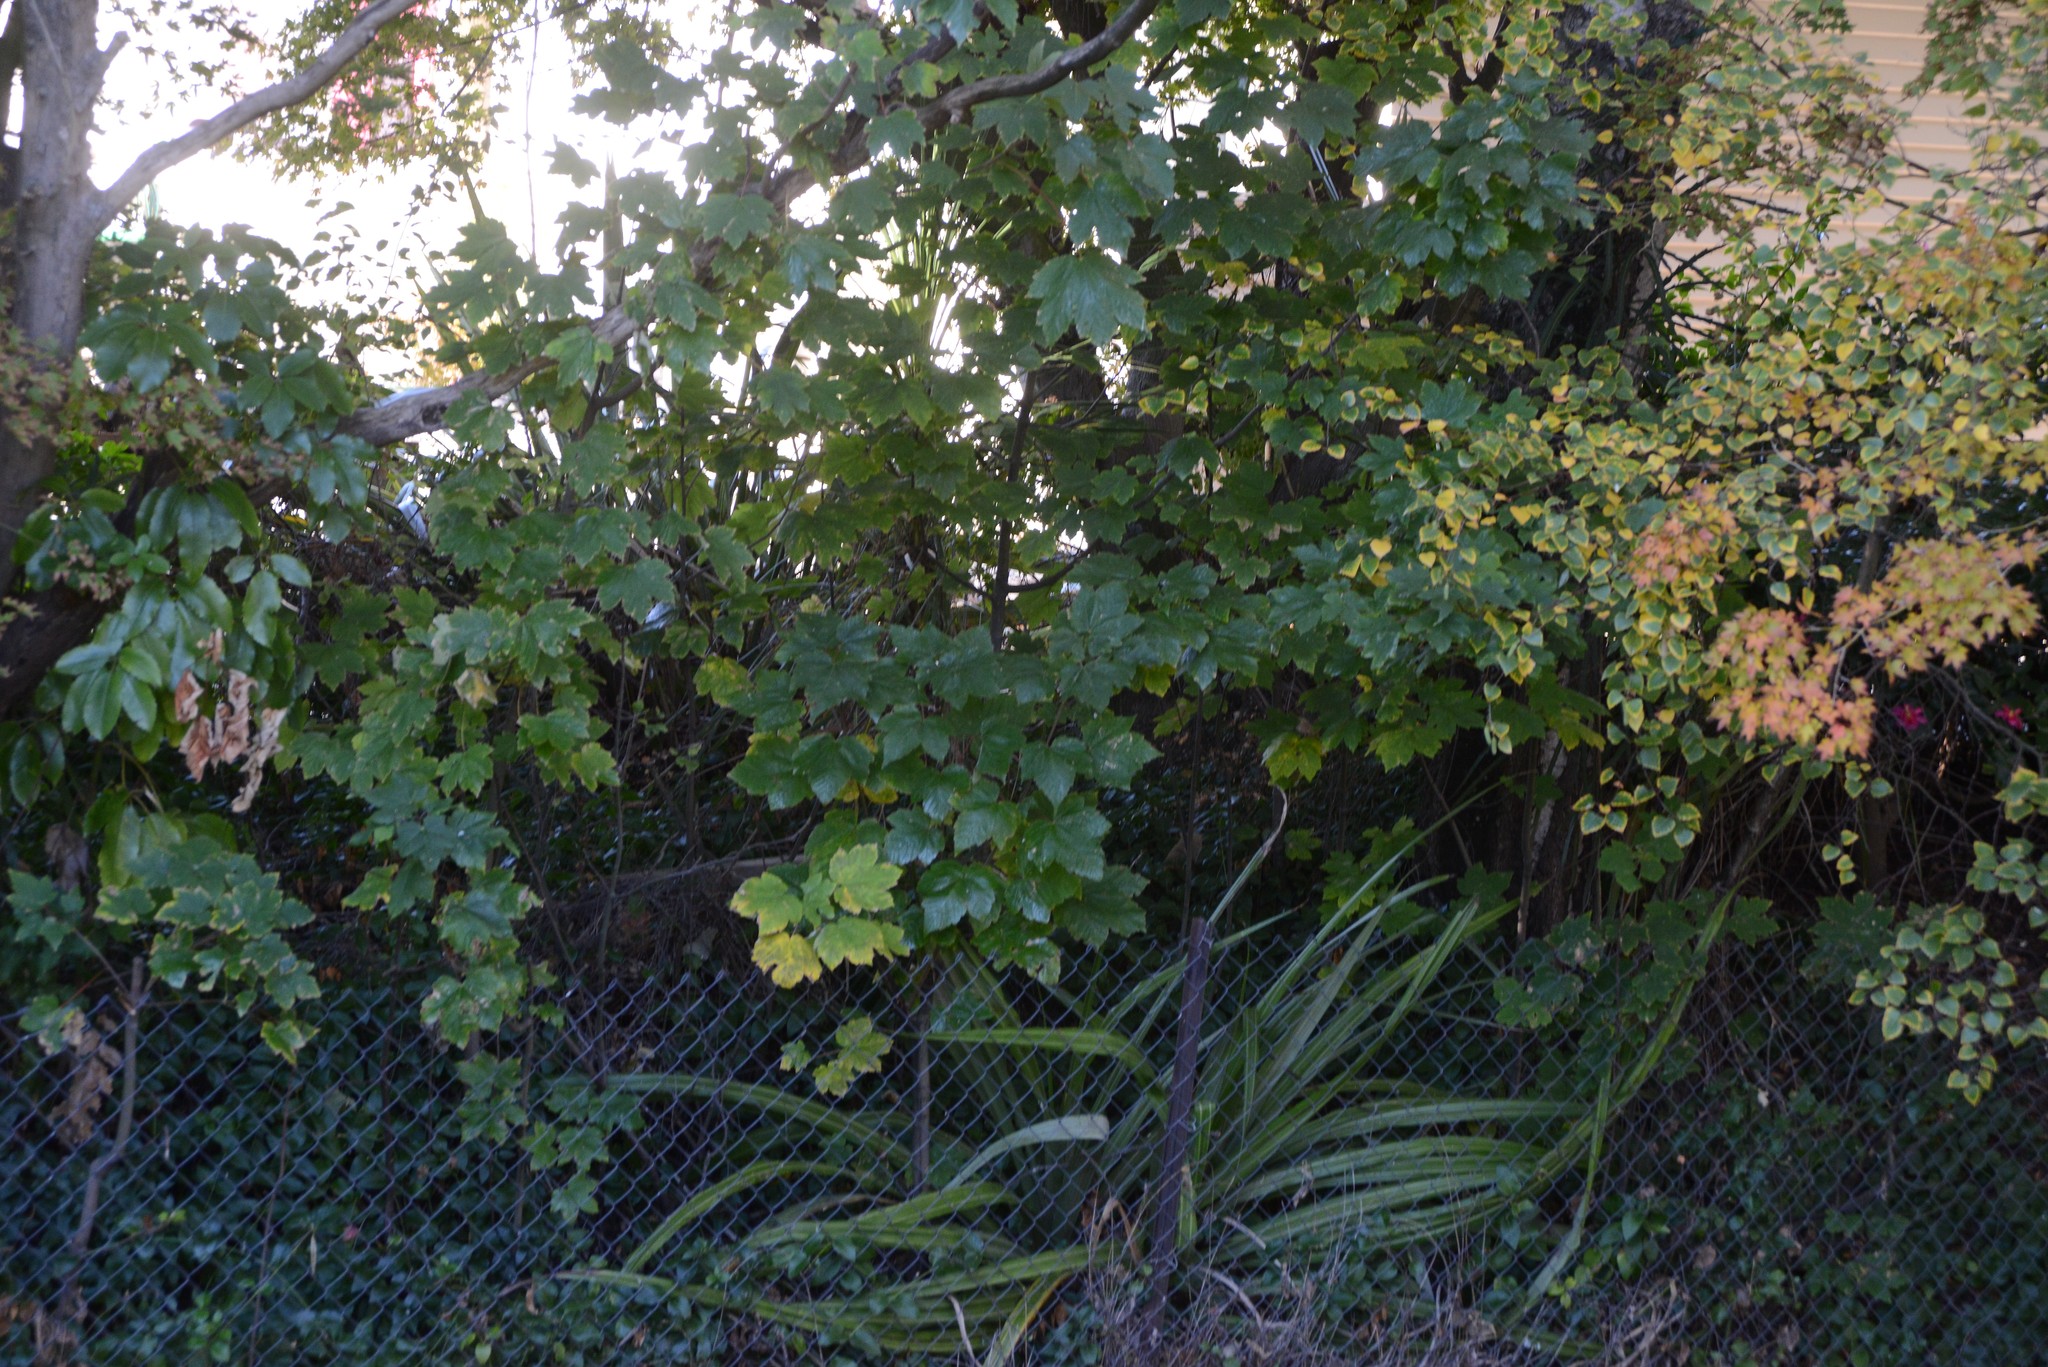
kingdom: Plantae
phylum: Tracheophyta
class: Magnoliopsida
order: Sapindales
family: Sapindaceae
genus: Acer
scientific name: Acer pseudoplatanus
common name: Sycamore
